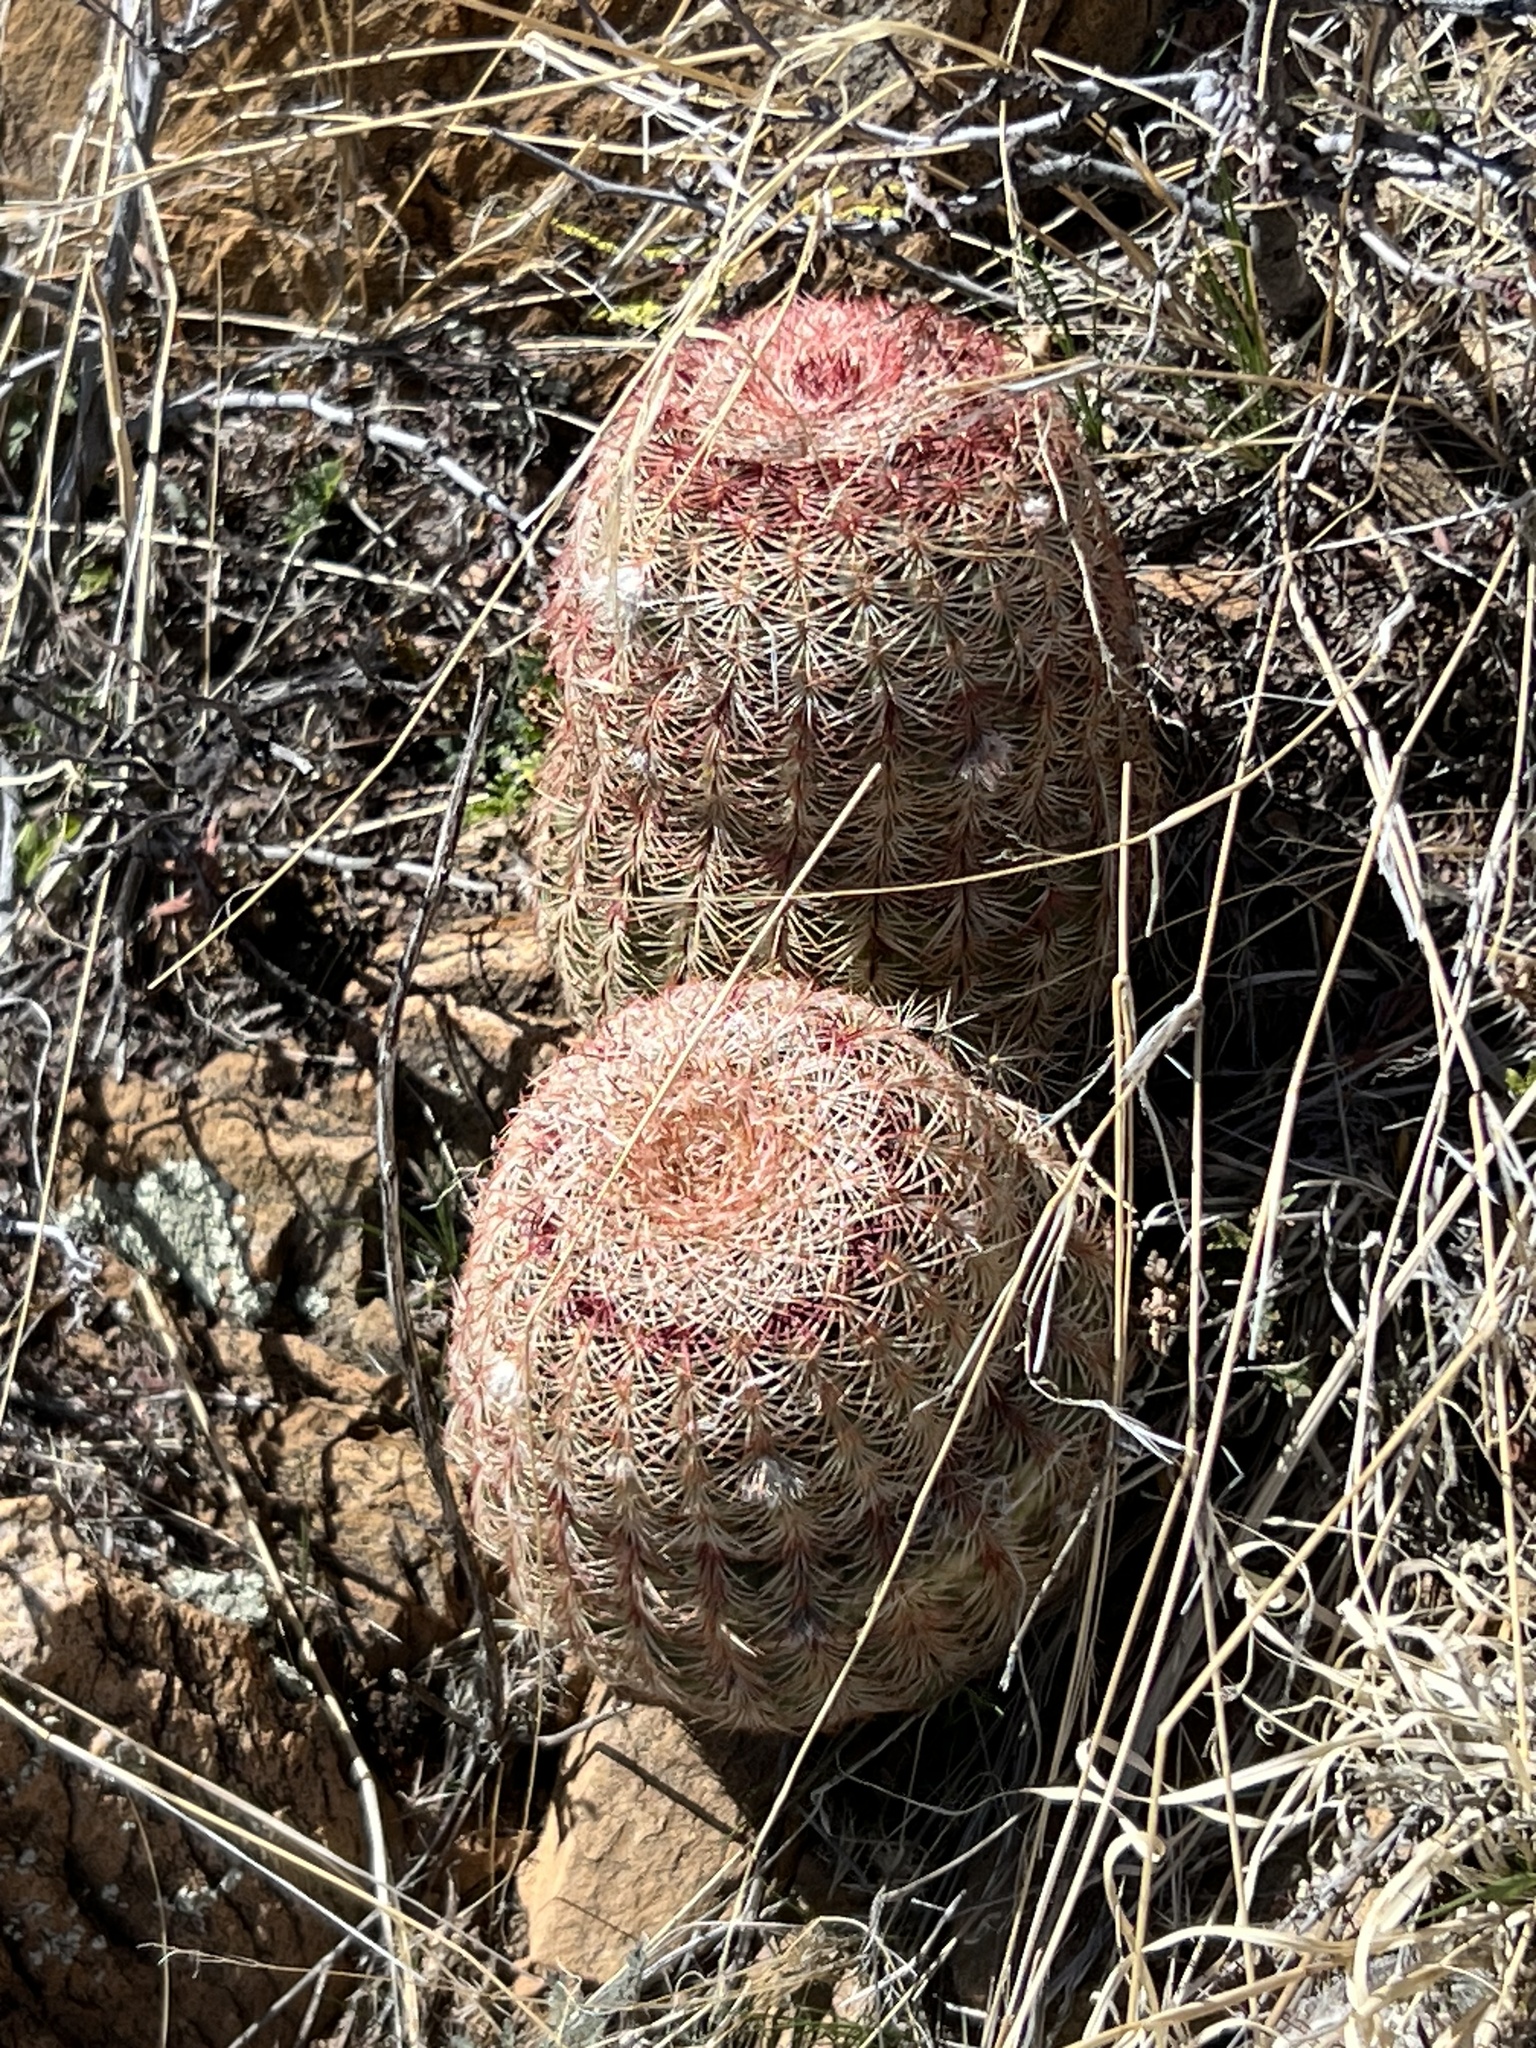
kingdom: Plantae
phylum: Tracheophyta
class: Magnoliopsida
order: Caryophyllales
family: Cactaceae
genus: Echinocereus
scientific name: Echinocereus rigidissimus
